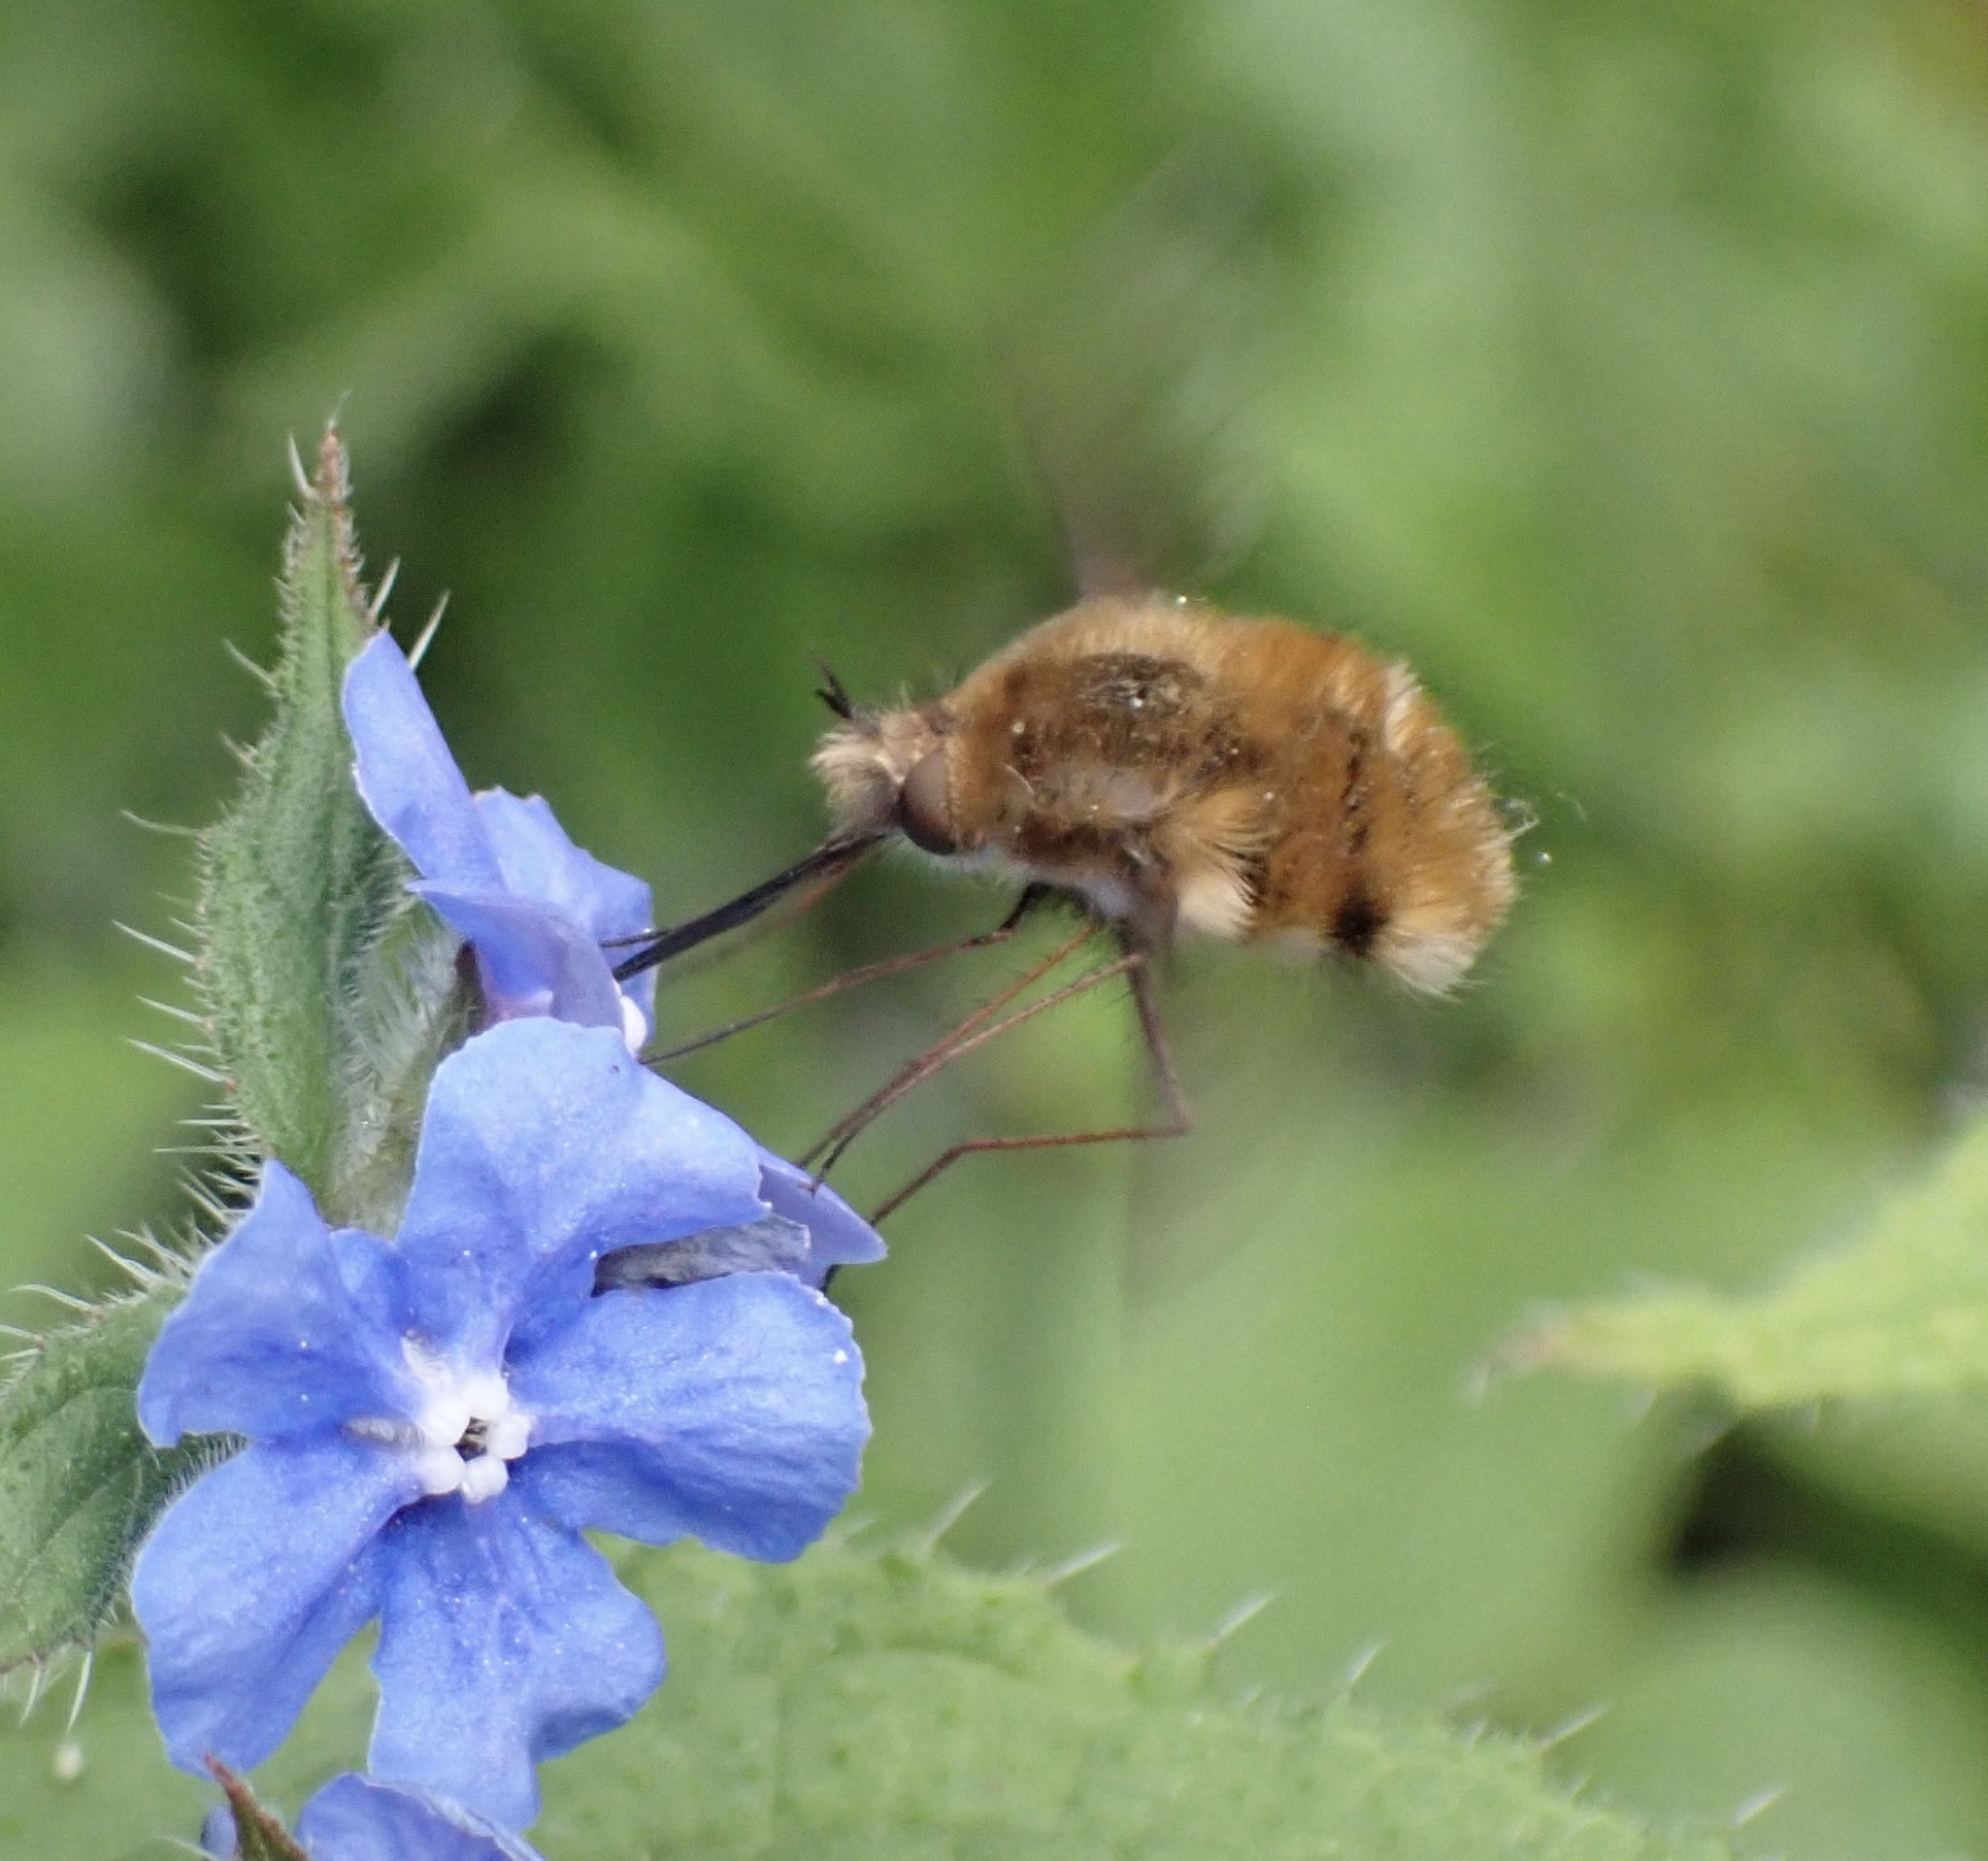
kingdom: Animalia
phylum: Arthropoda
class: Insecta
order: Diptera
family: Bombyliidae
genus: Bombylius
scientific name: Bombylius major
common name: Bee fly
